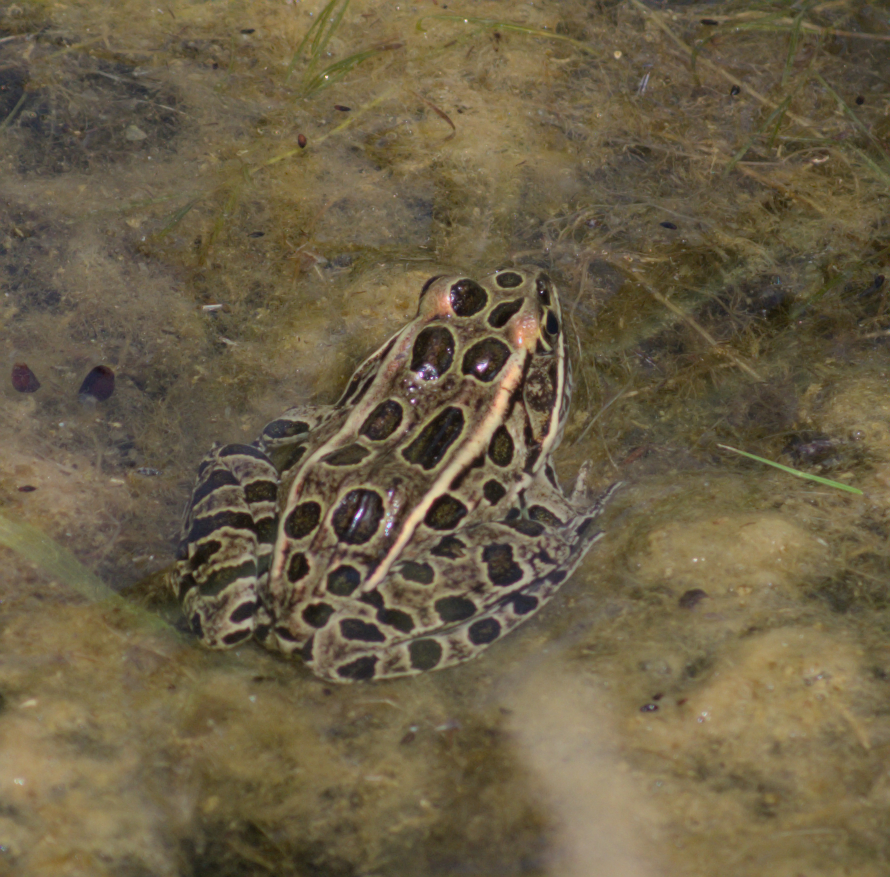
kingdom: Animalia
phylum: Chordata
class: Amphibia
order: Anura
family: Ranidae
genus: Lithobates
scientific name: Lithobates pipiens
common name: Northern leopard frog
